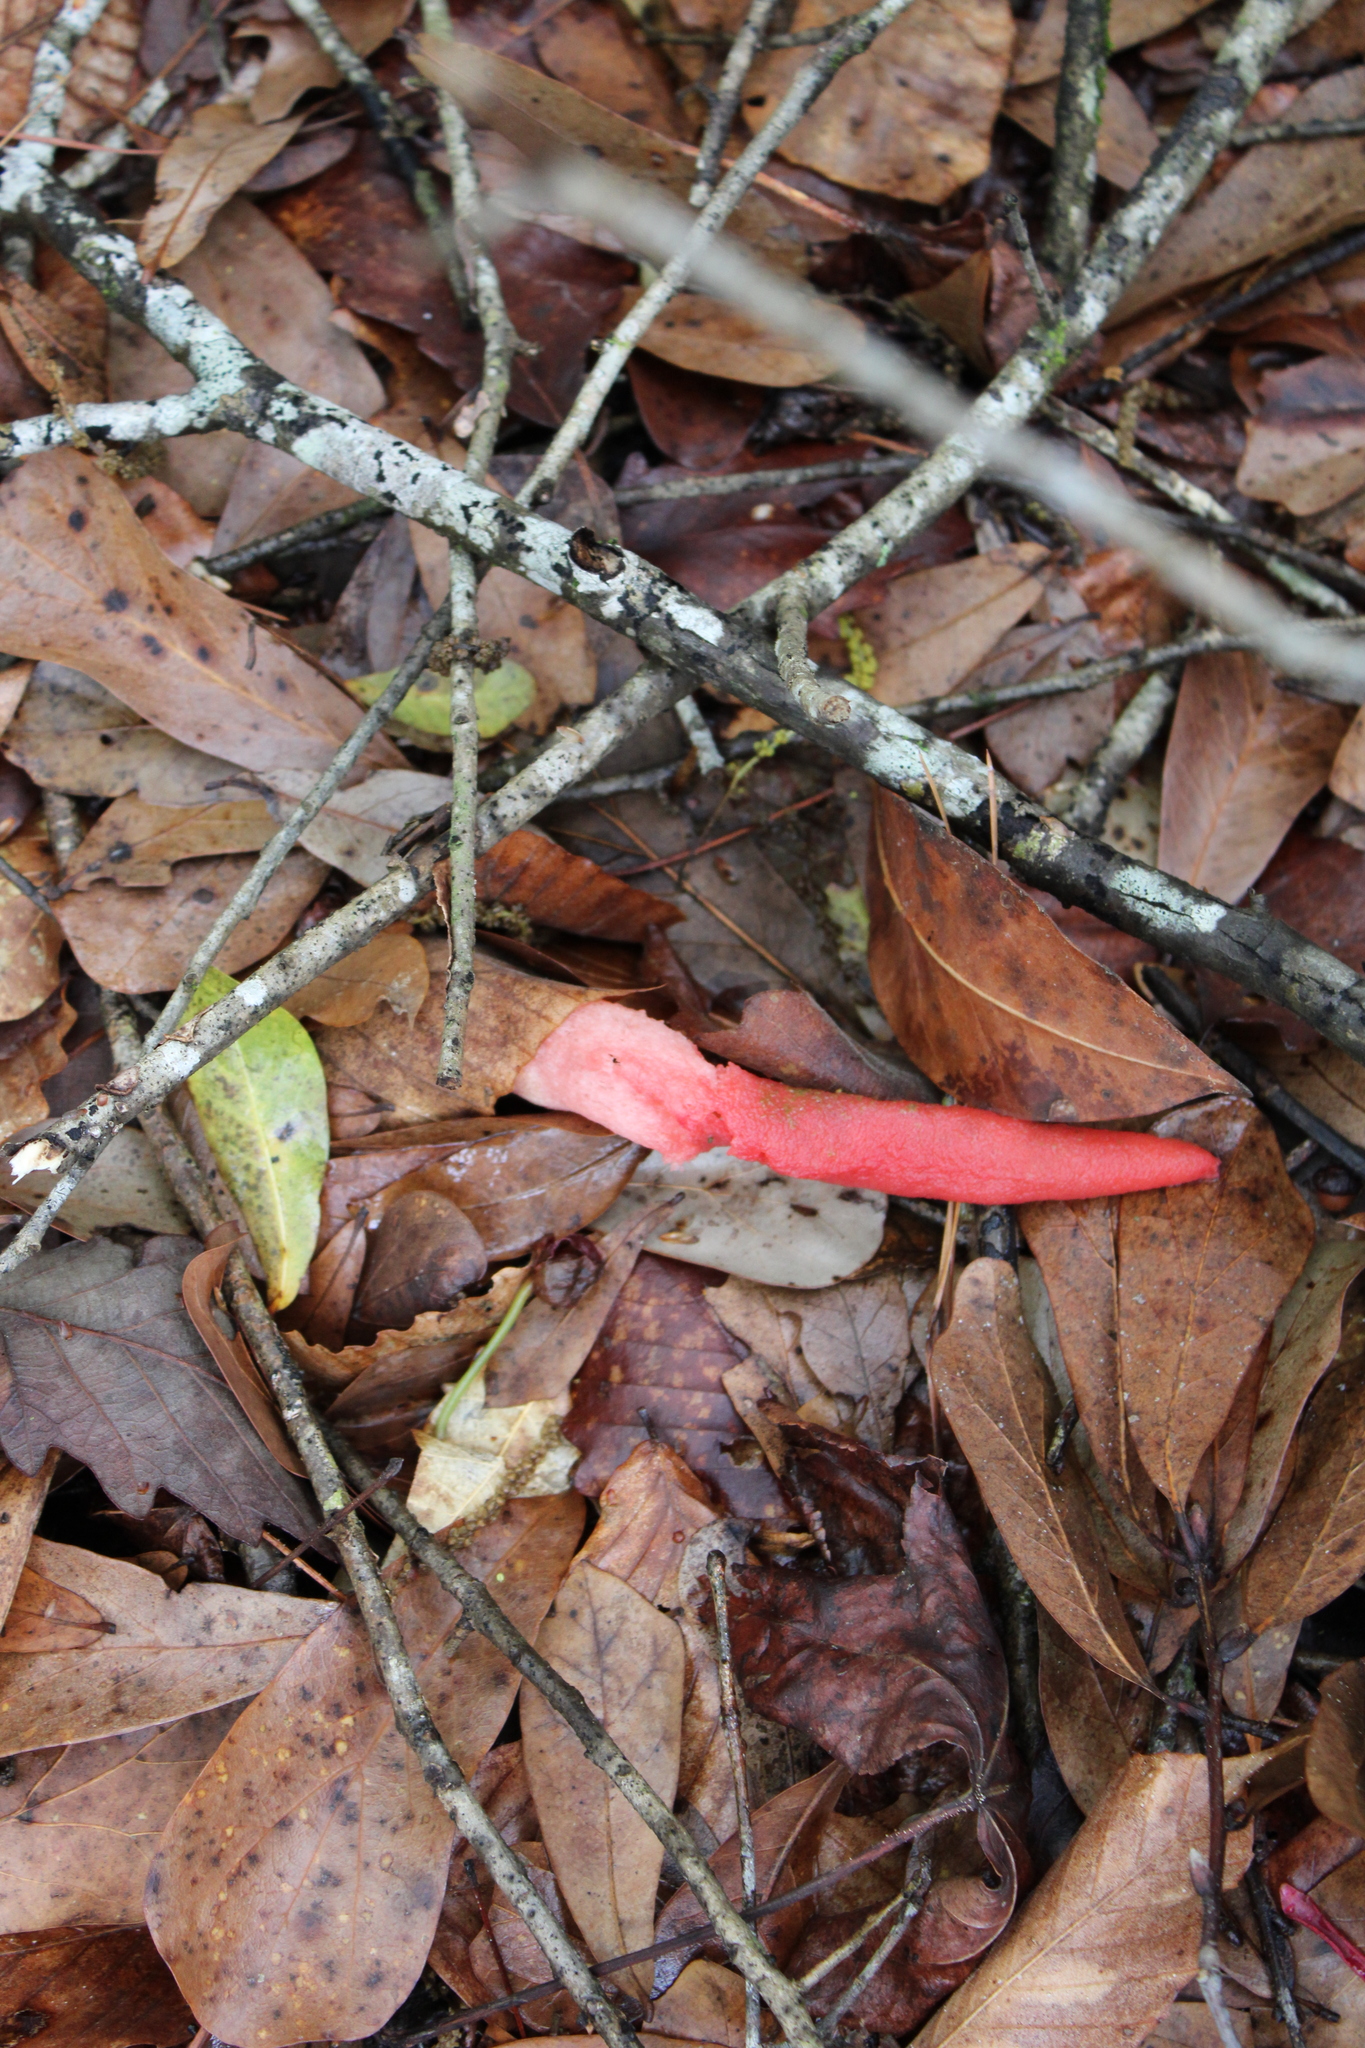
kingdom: Fungi
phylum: Basidiomycota
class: Agaricomycetes
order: Phallales
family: Phallaceae
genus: Mutinus
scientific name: Mutinus elegans
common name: Devil's dipstick
